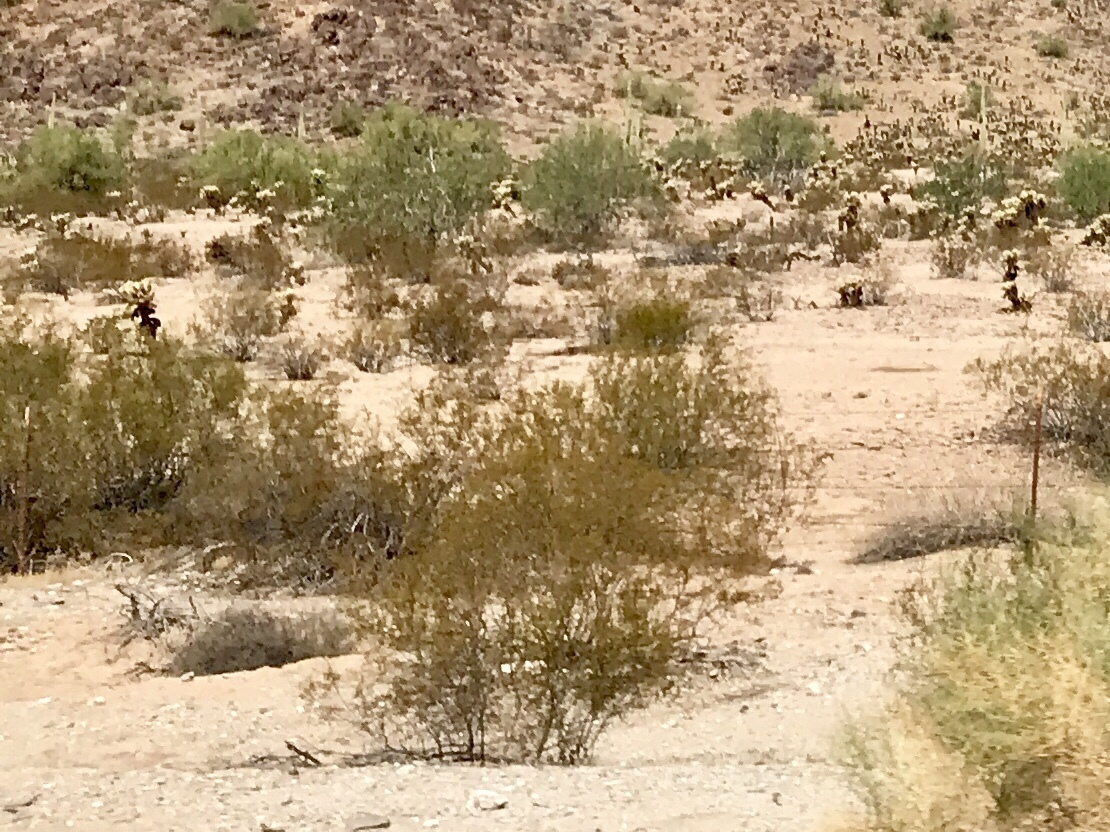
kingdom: Plantae
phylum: Tracheophyta
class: Magnoliopsida
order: Zygophyllales
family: Zygophyllaceae
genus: Larrea
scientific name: Larrea tridentata
